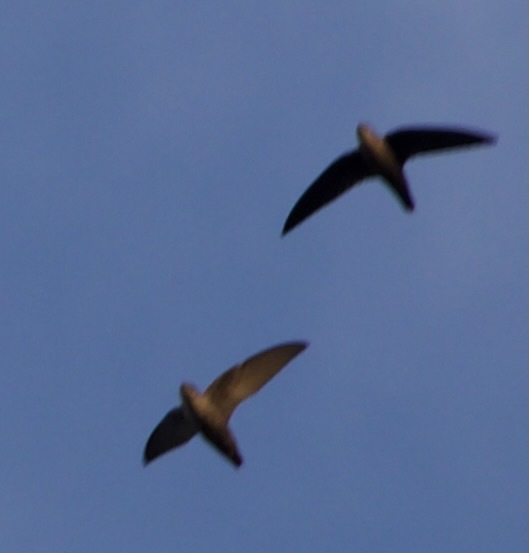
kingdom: Animalia
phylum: Chordata
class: Aves
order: Apodiformes
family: Apodidae
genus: Chaetura
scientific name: Chaetura pelagica
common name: Chimney swift
